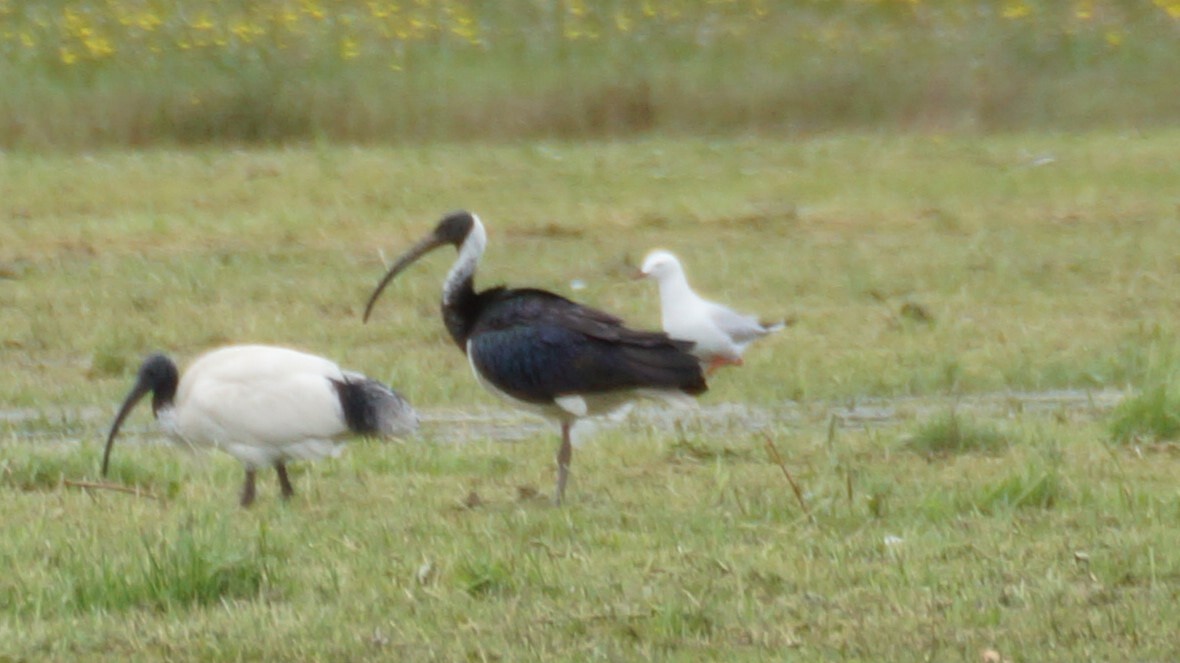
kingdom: Animalia
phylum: Chordata
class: Aves
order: Pelecaniformes
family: Threskiornithidae
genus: Threskiornis
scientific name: Threskiornis spinicollis
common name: Straw-necked ibis
